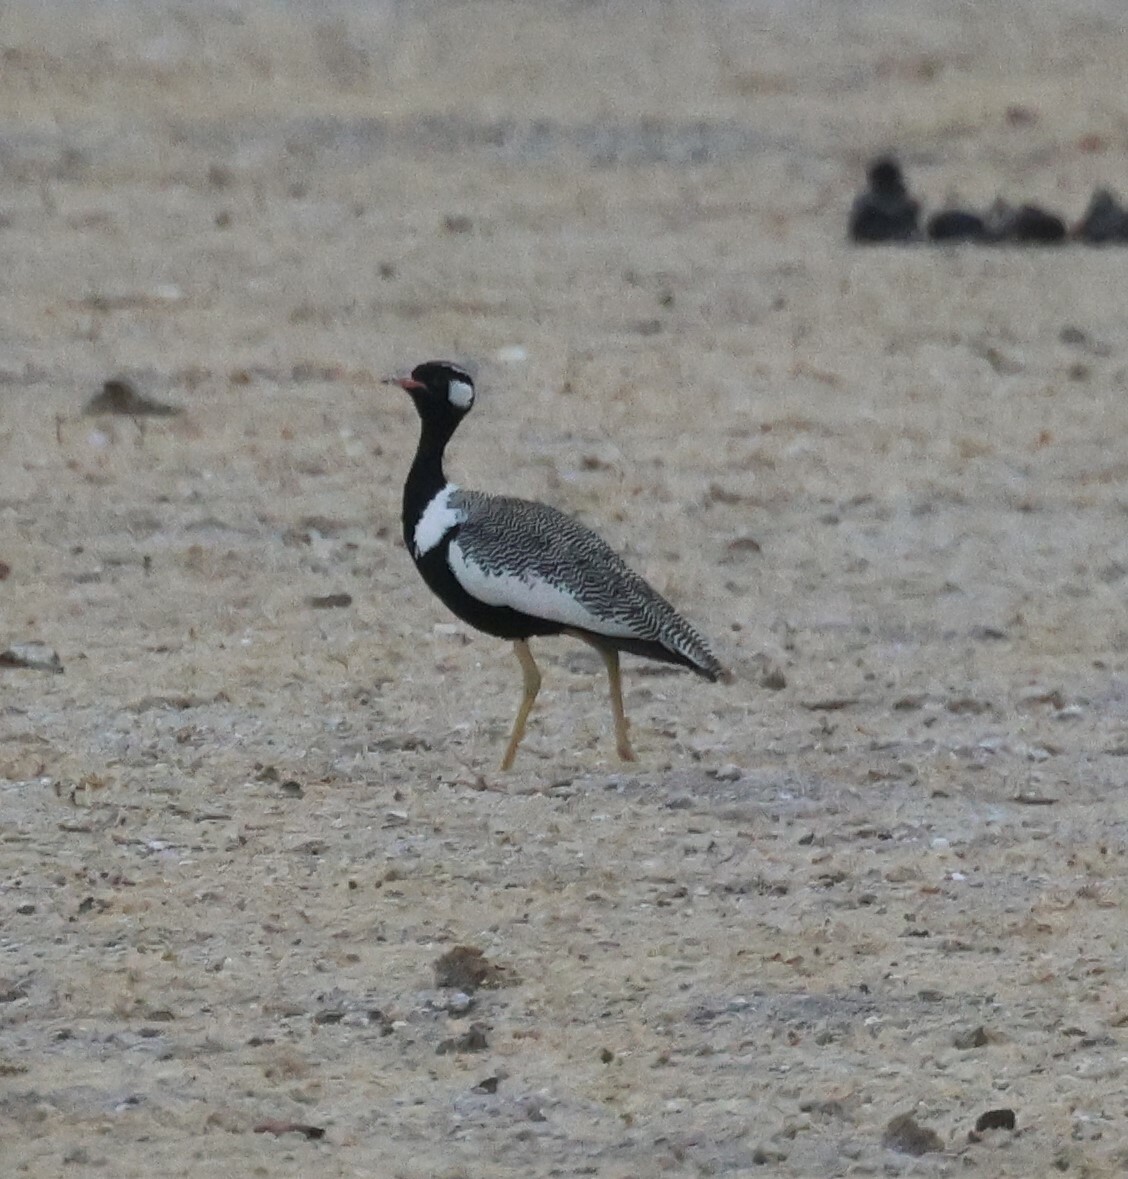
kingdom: Animalia
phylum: Chordata
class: Aves
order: Otidiformes
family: Otididae
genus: Afrotis
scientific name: Afrotis afraoides
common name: Northern black korhaan
